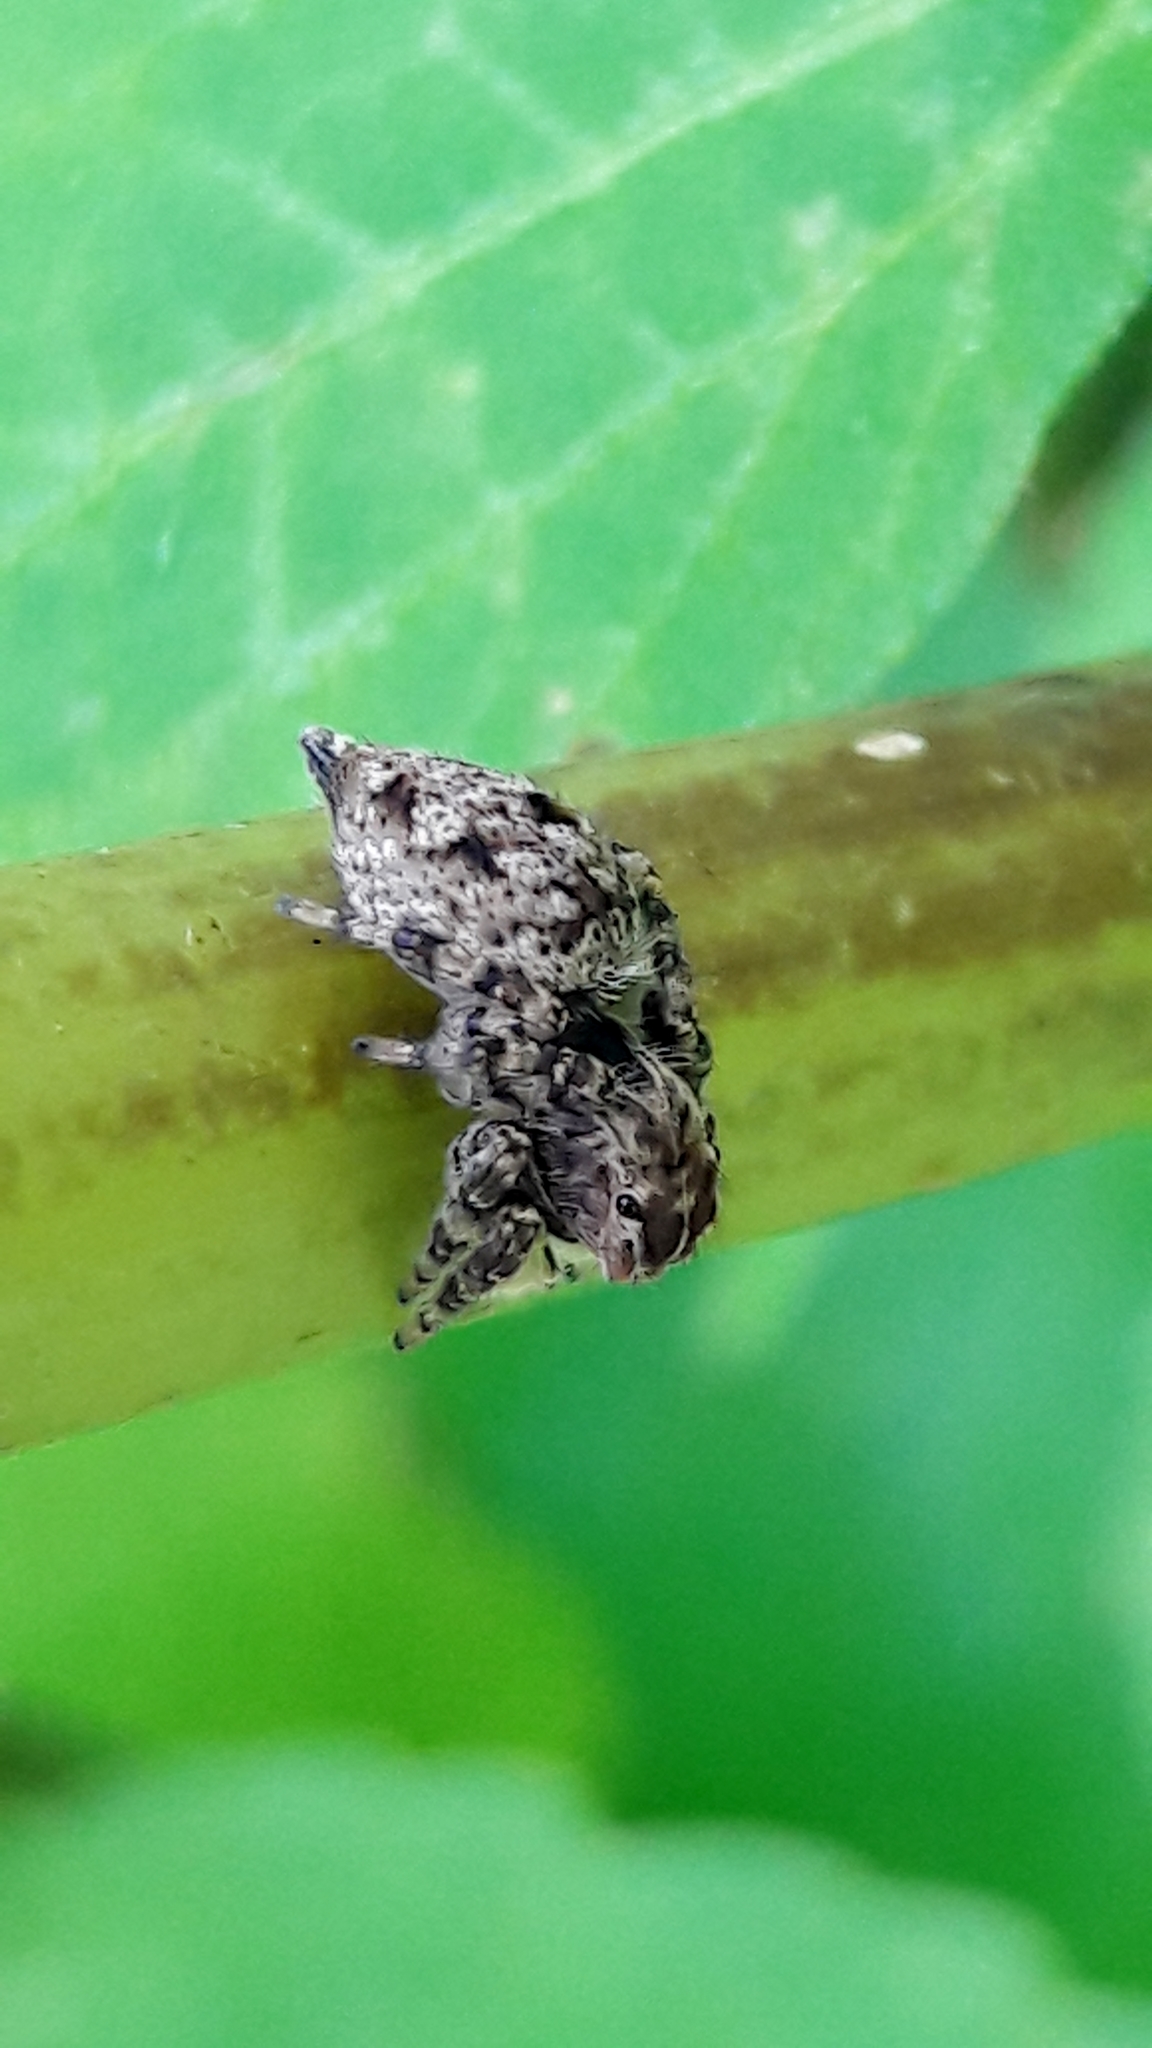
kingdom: Animalia
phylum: Arthropoda
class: Arachnida
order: Araneae
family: Salticidae
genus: Sumampattus
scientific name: Sumampattus quinqueradiatus
